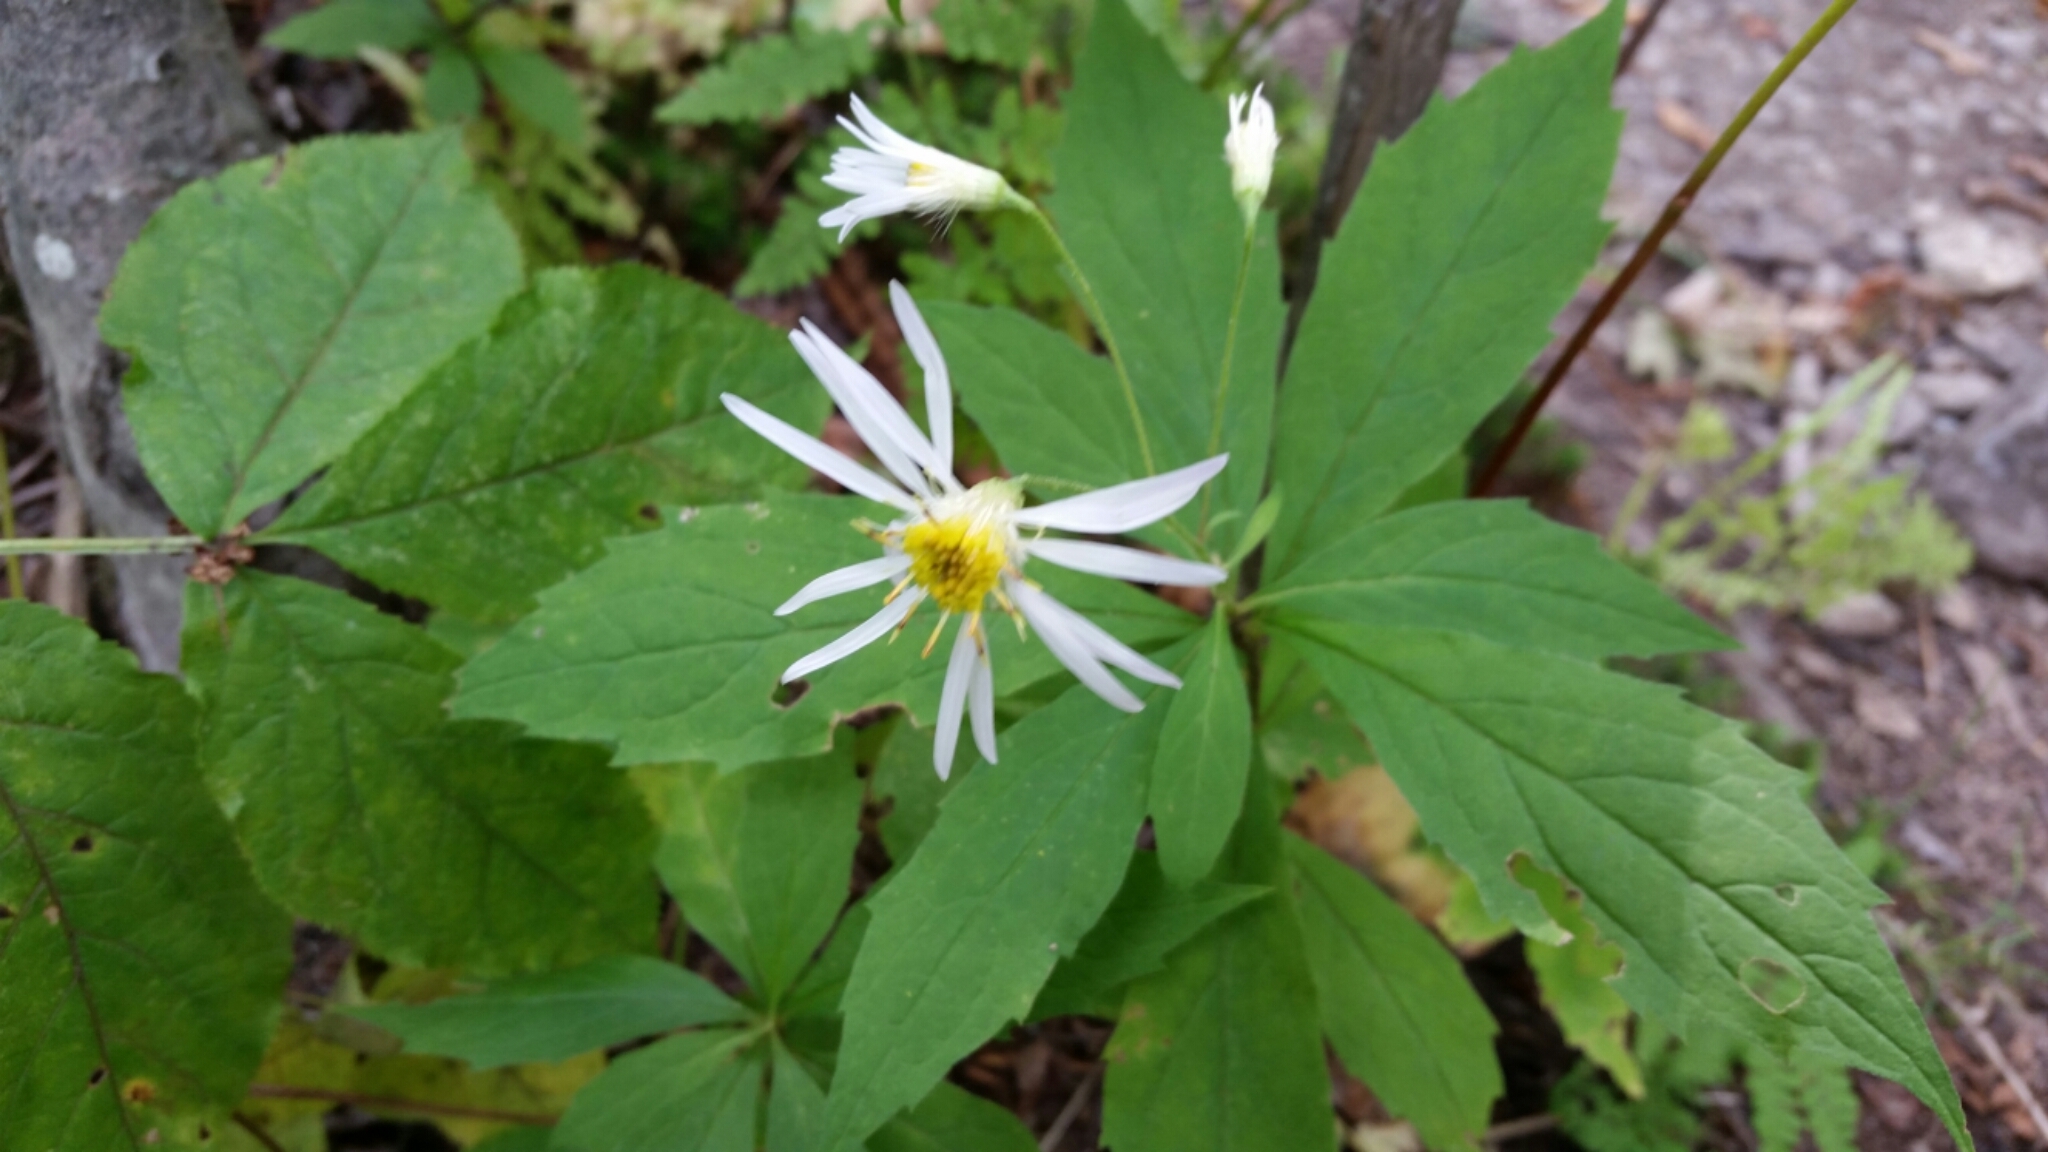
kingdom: Plantae
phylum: Tracheophyta
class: Magnoliopsida
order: Asterales
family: Asteraceae
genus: Oclemena
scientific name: Oclemena acuminata
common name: Mountain aster
